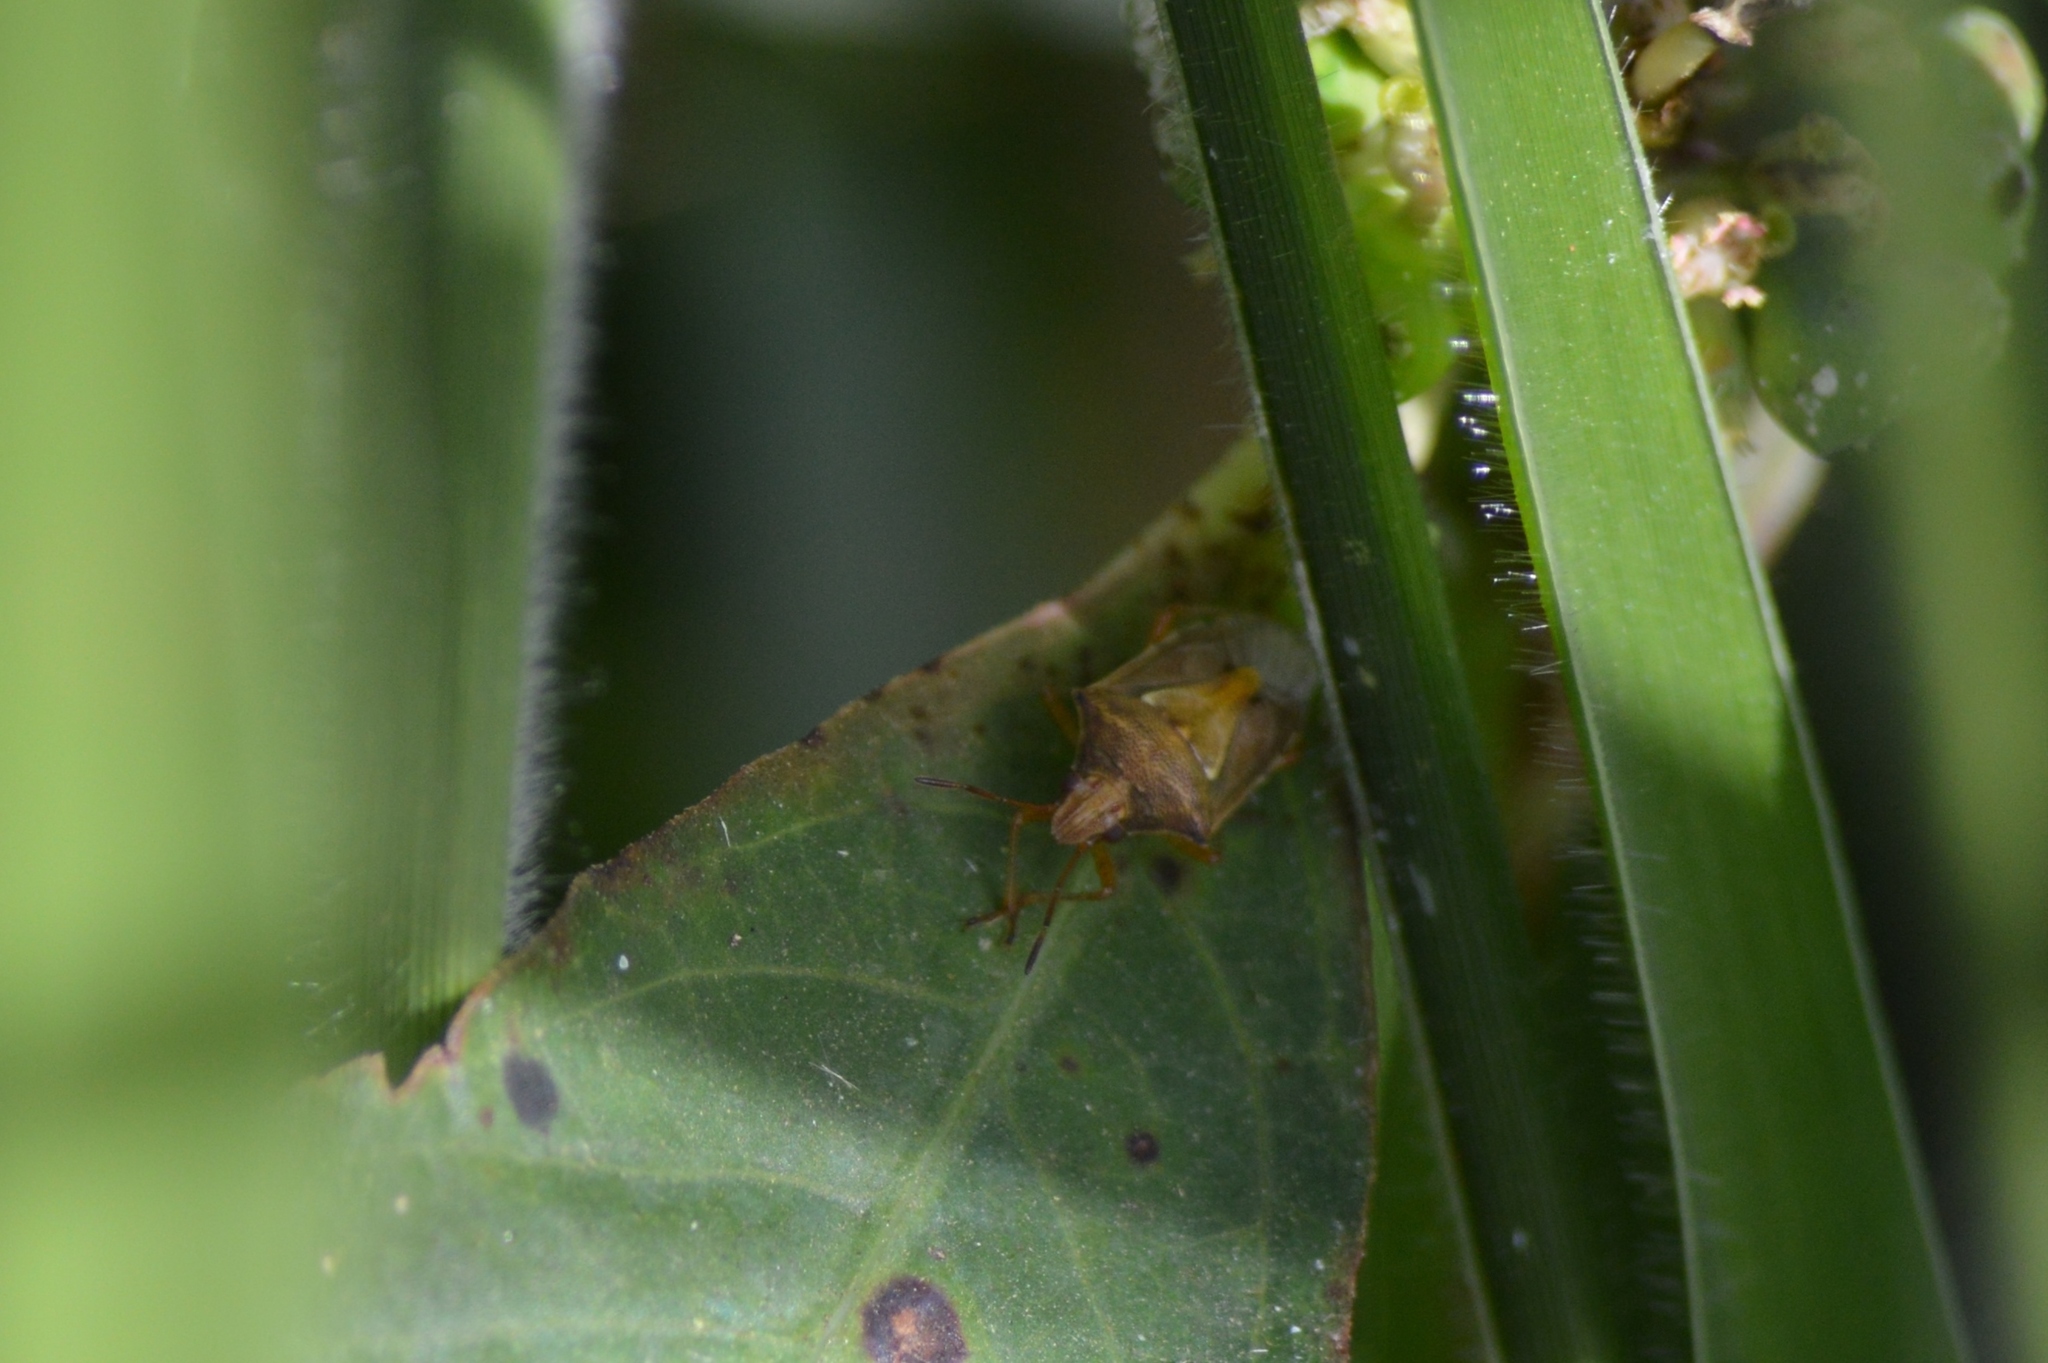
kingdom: Animalia
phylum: Arthropoda
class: Insecta
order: Hemiptera
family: Pentatomidae
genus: Oebalus
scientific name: Oebalus ypsilongriseus
